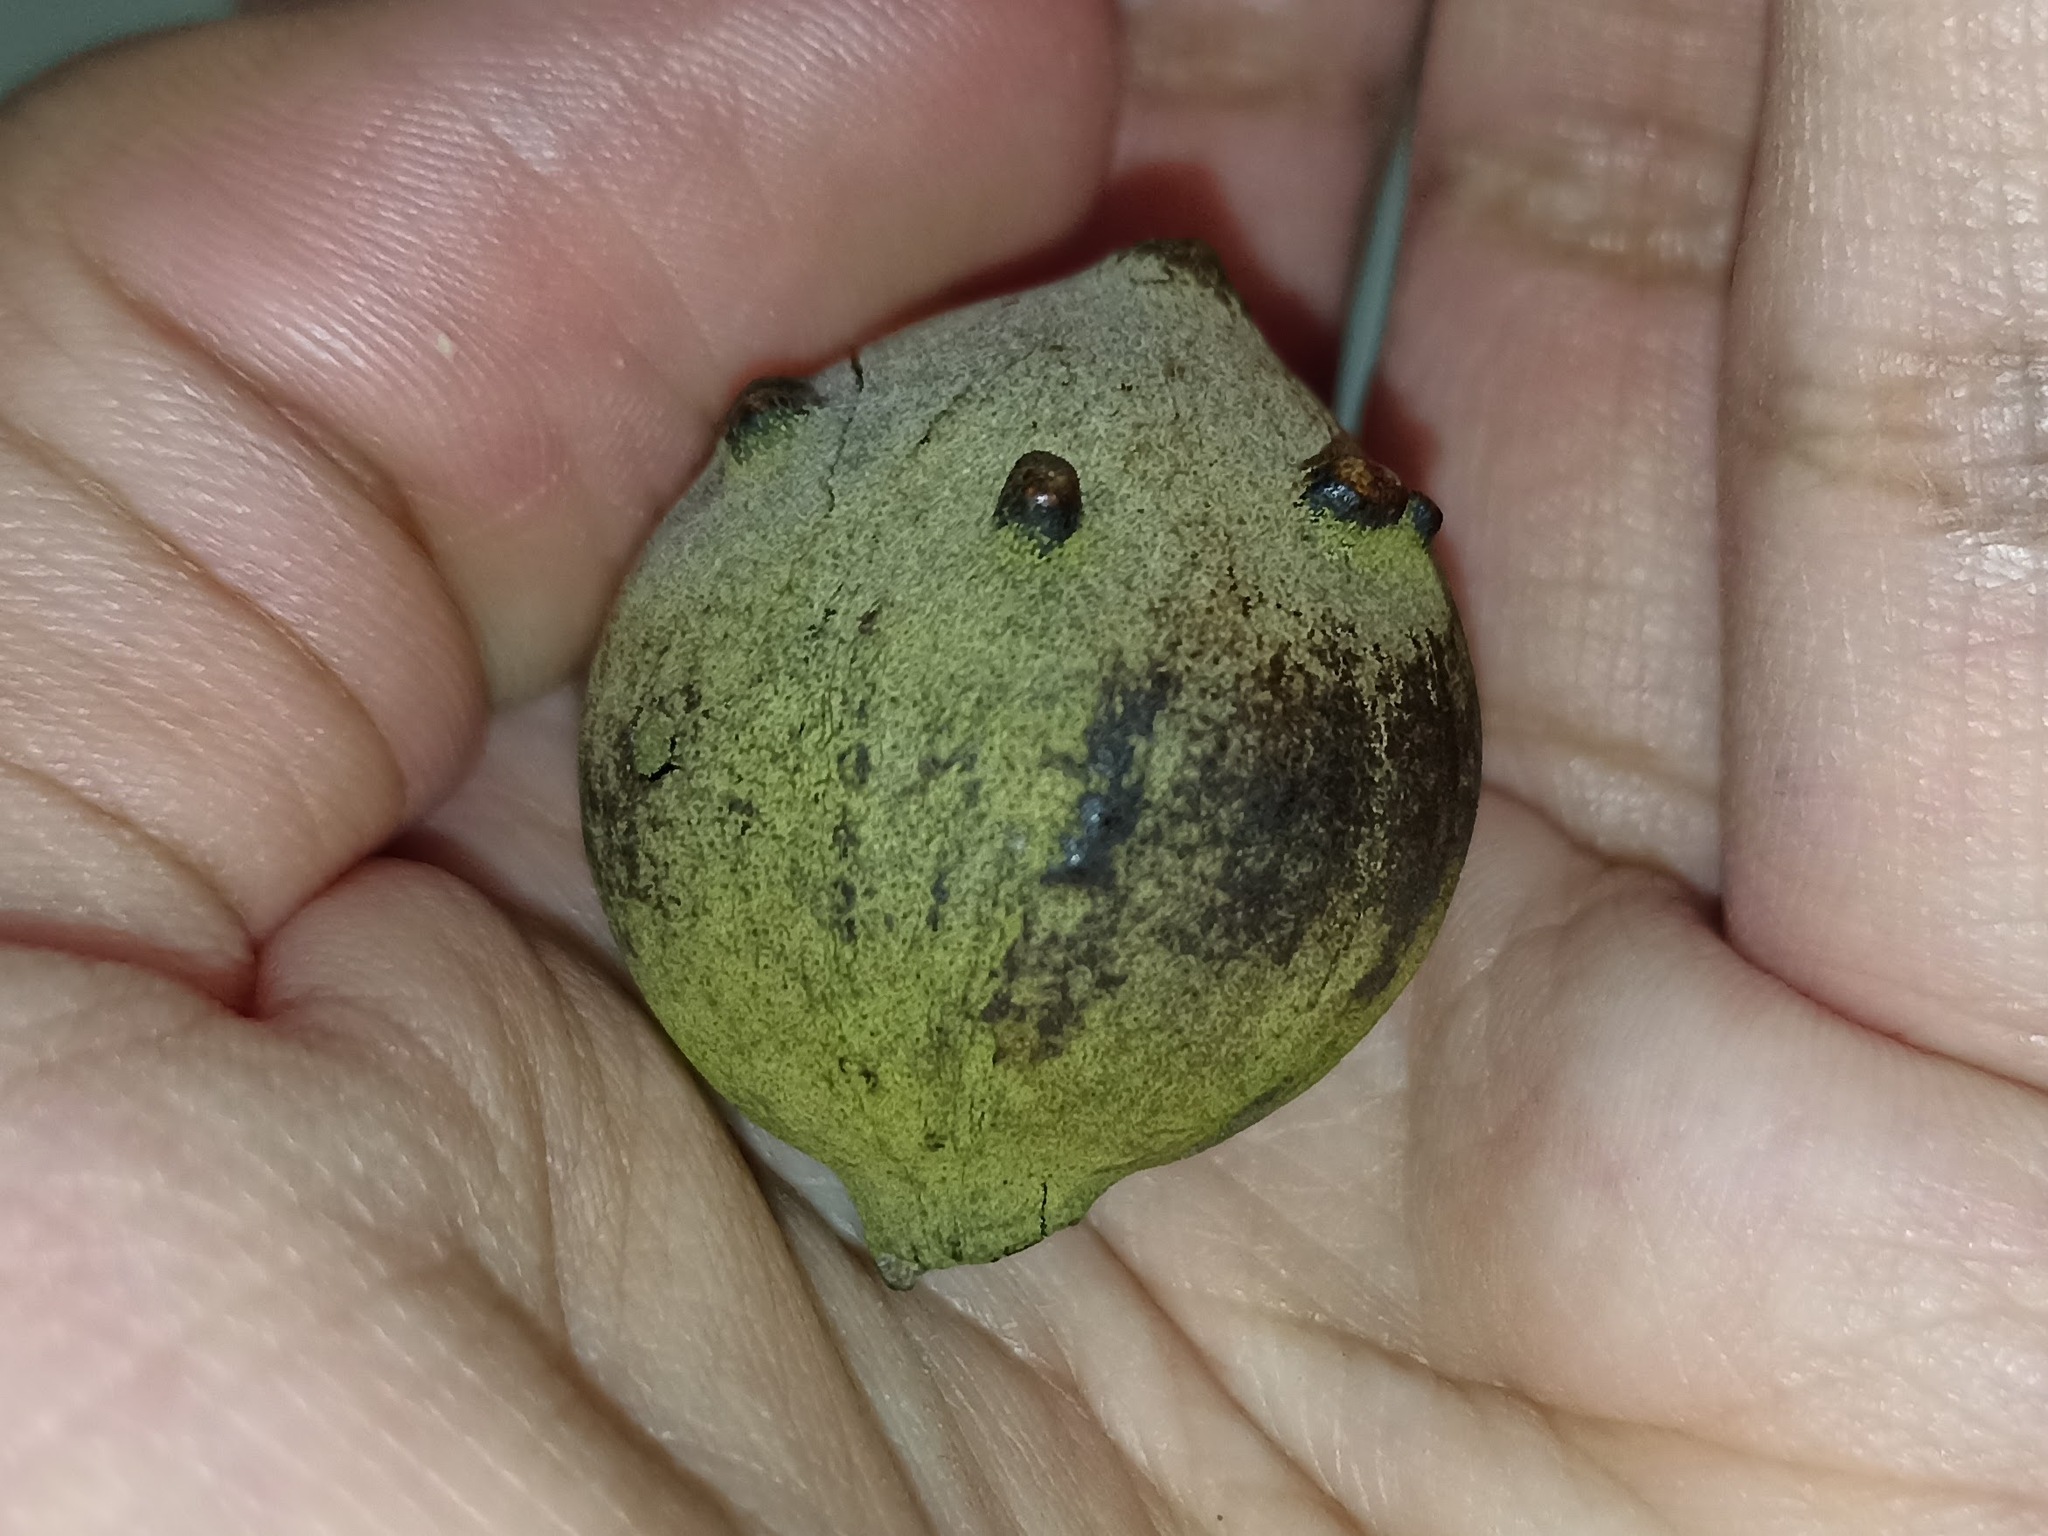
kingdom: Animalia
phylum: Arthropoda
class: Insecta
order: Hymenoptera
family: Cynipidae
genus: Andricus
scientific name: Andricus quercustozae
